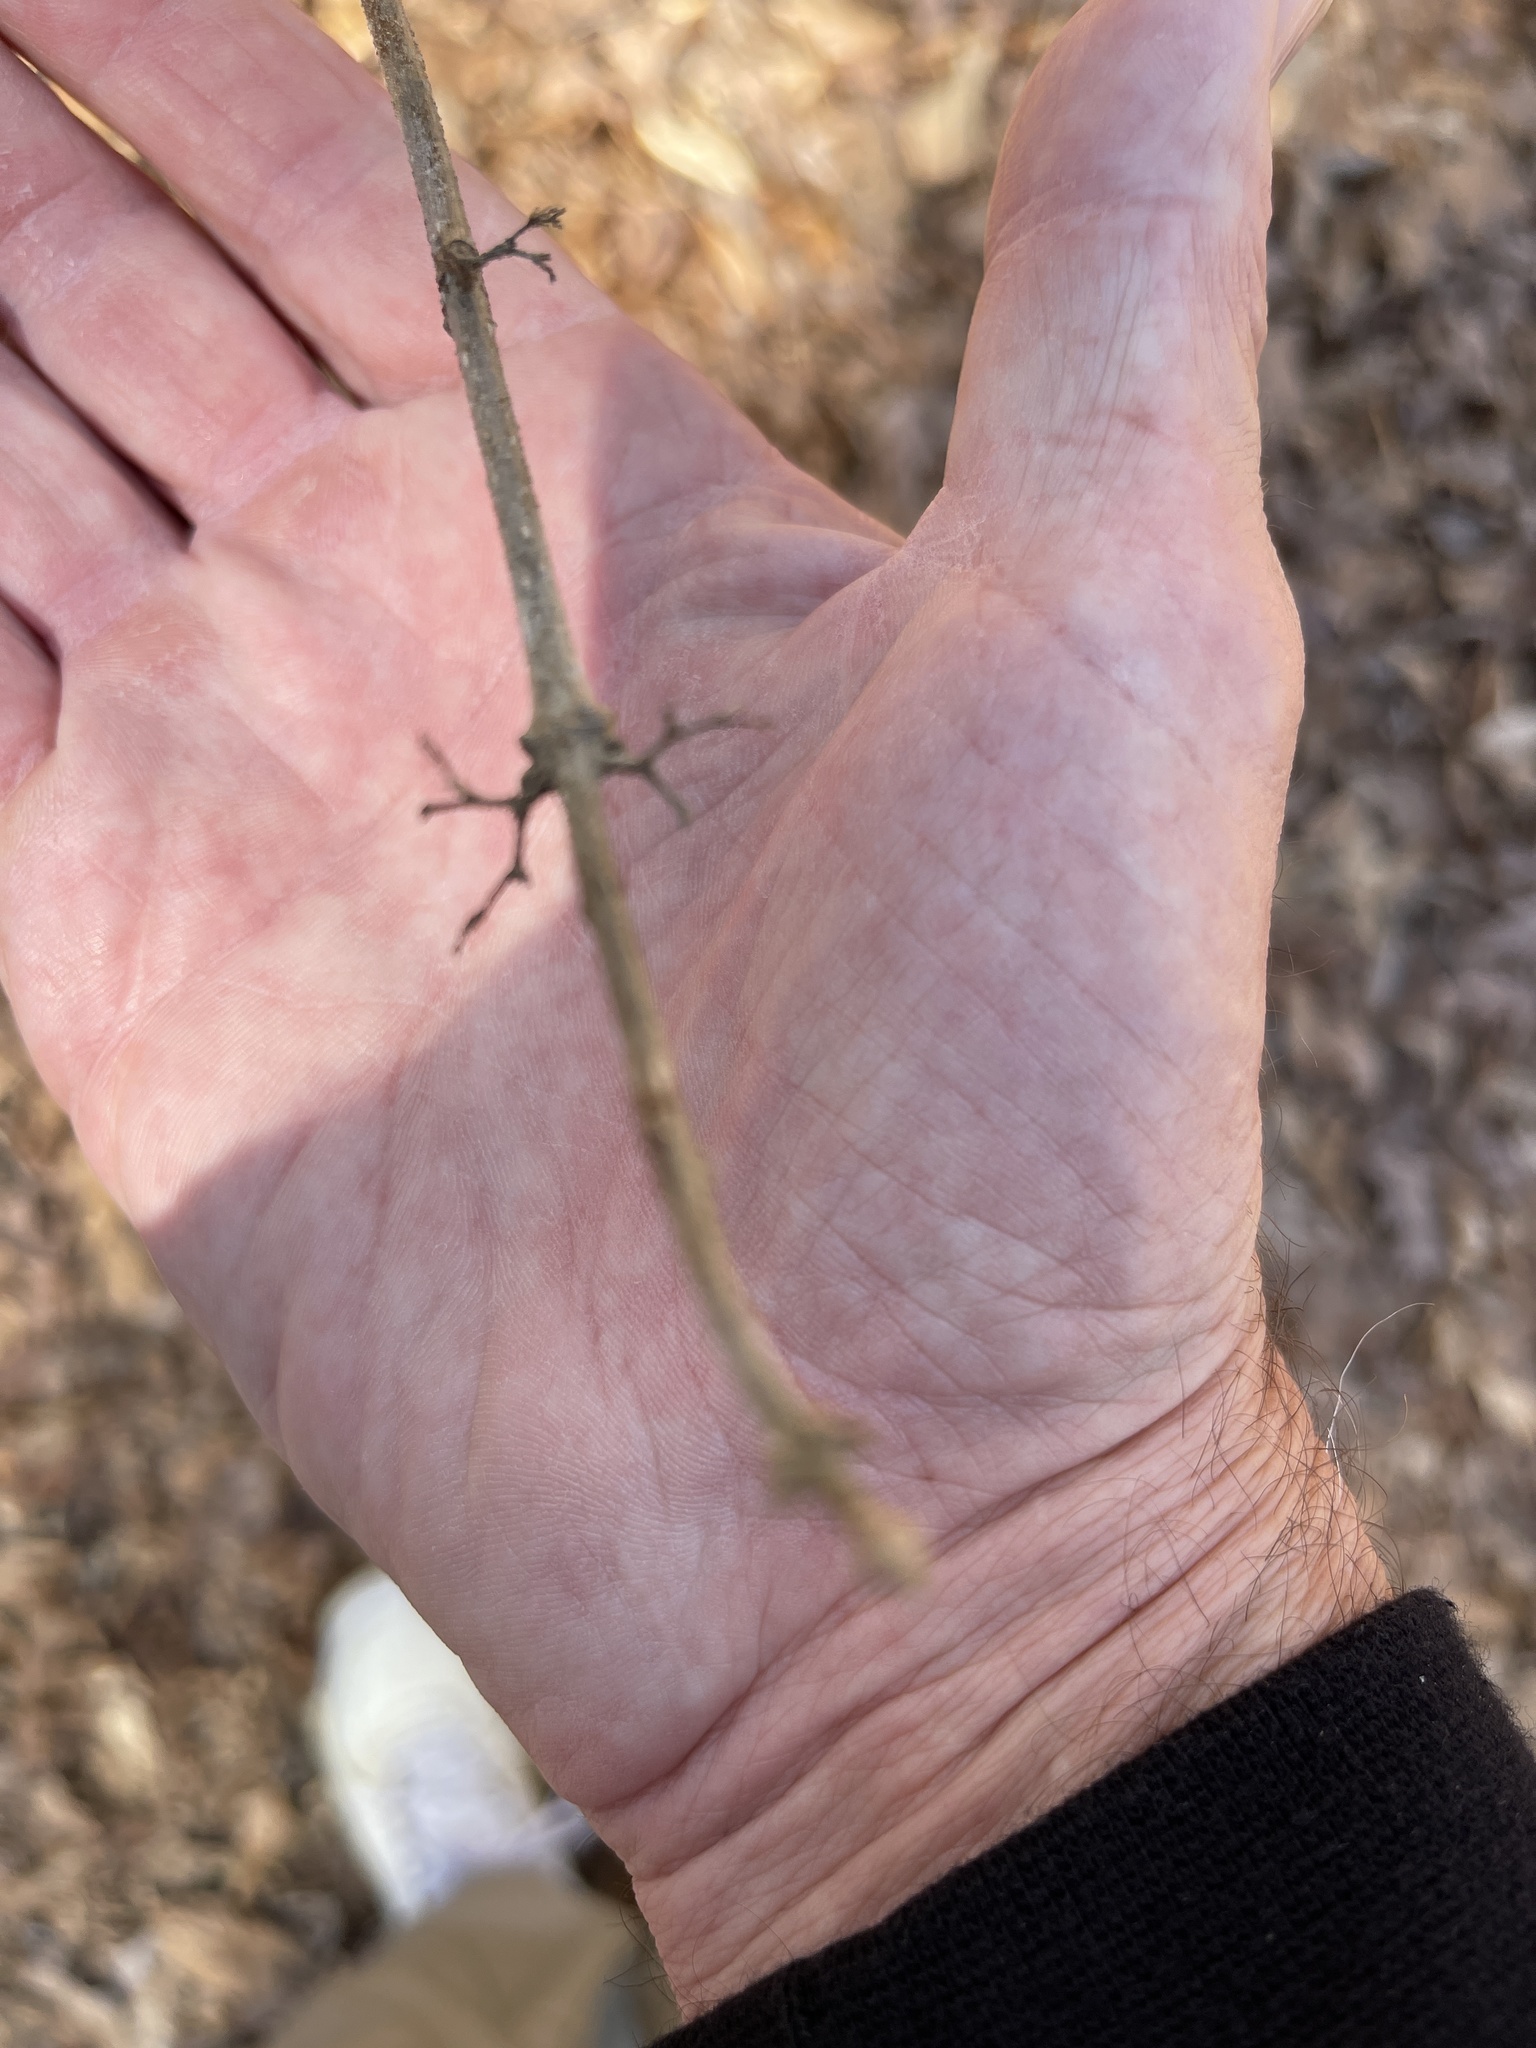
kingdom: Plantae
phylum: Tracheophyta
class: Magnoliopsida
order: Lamiales
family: Lamiaceae
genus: Callicarpa
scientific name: Callicarpa americana
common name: American beautyberry
